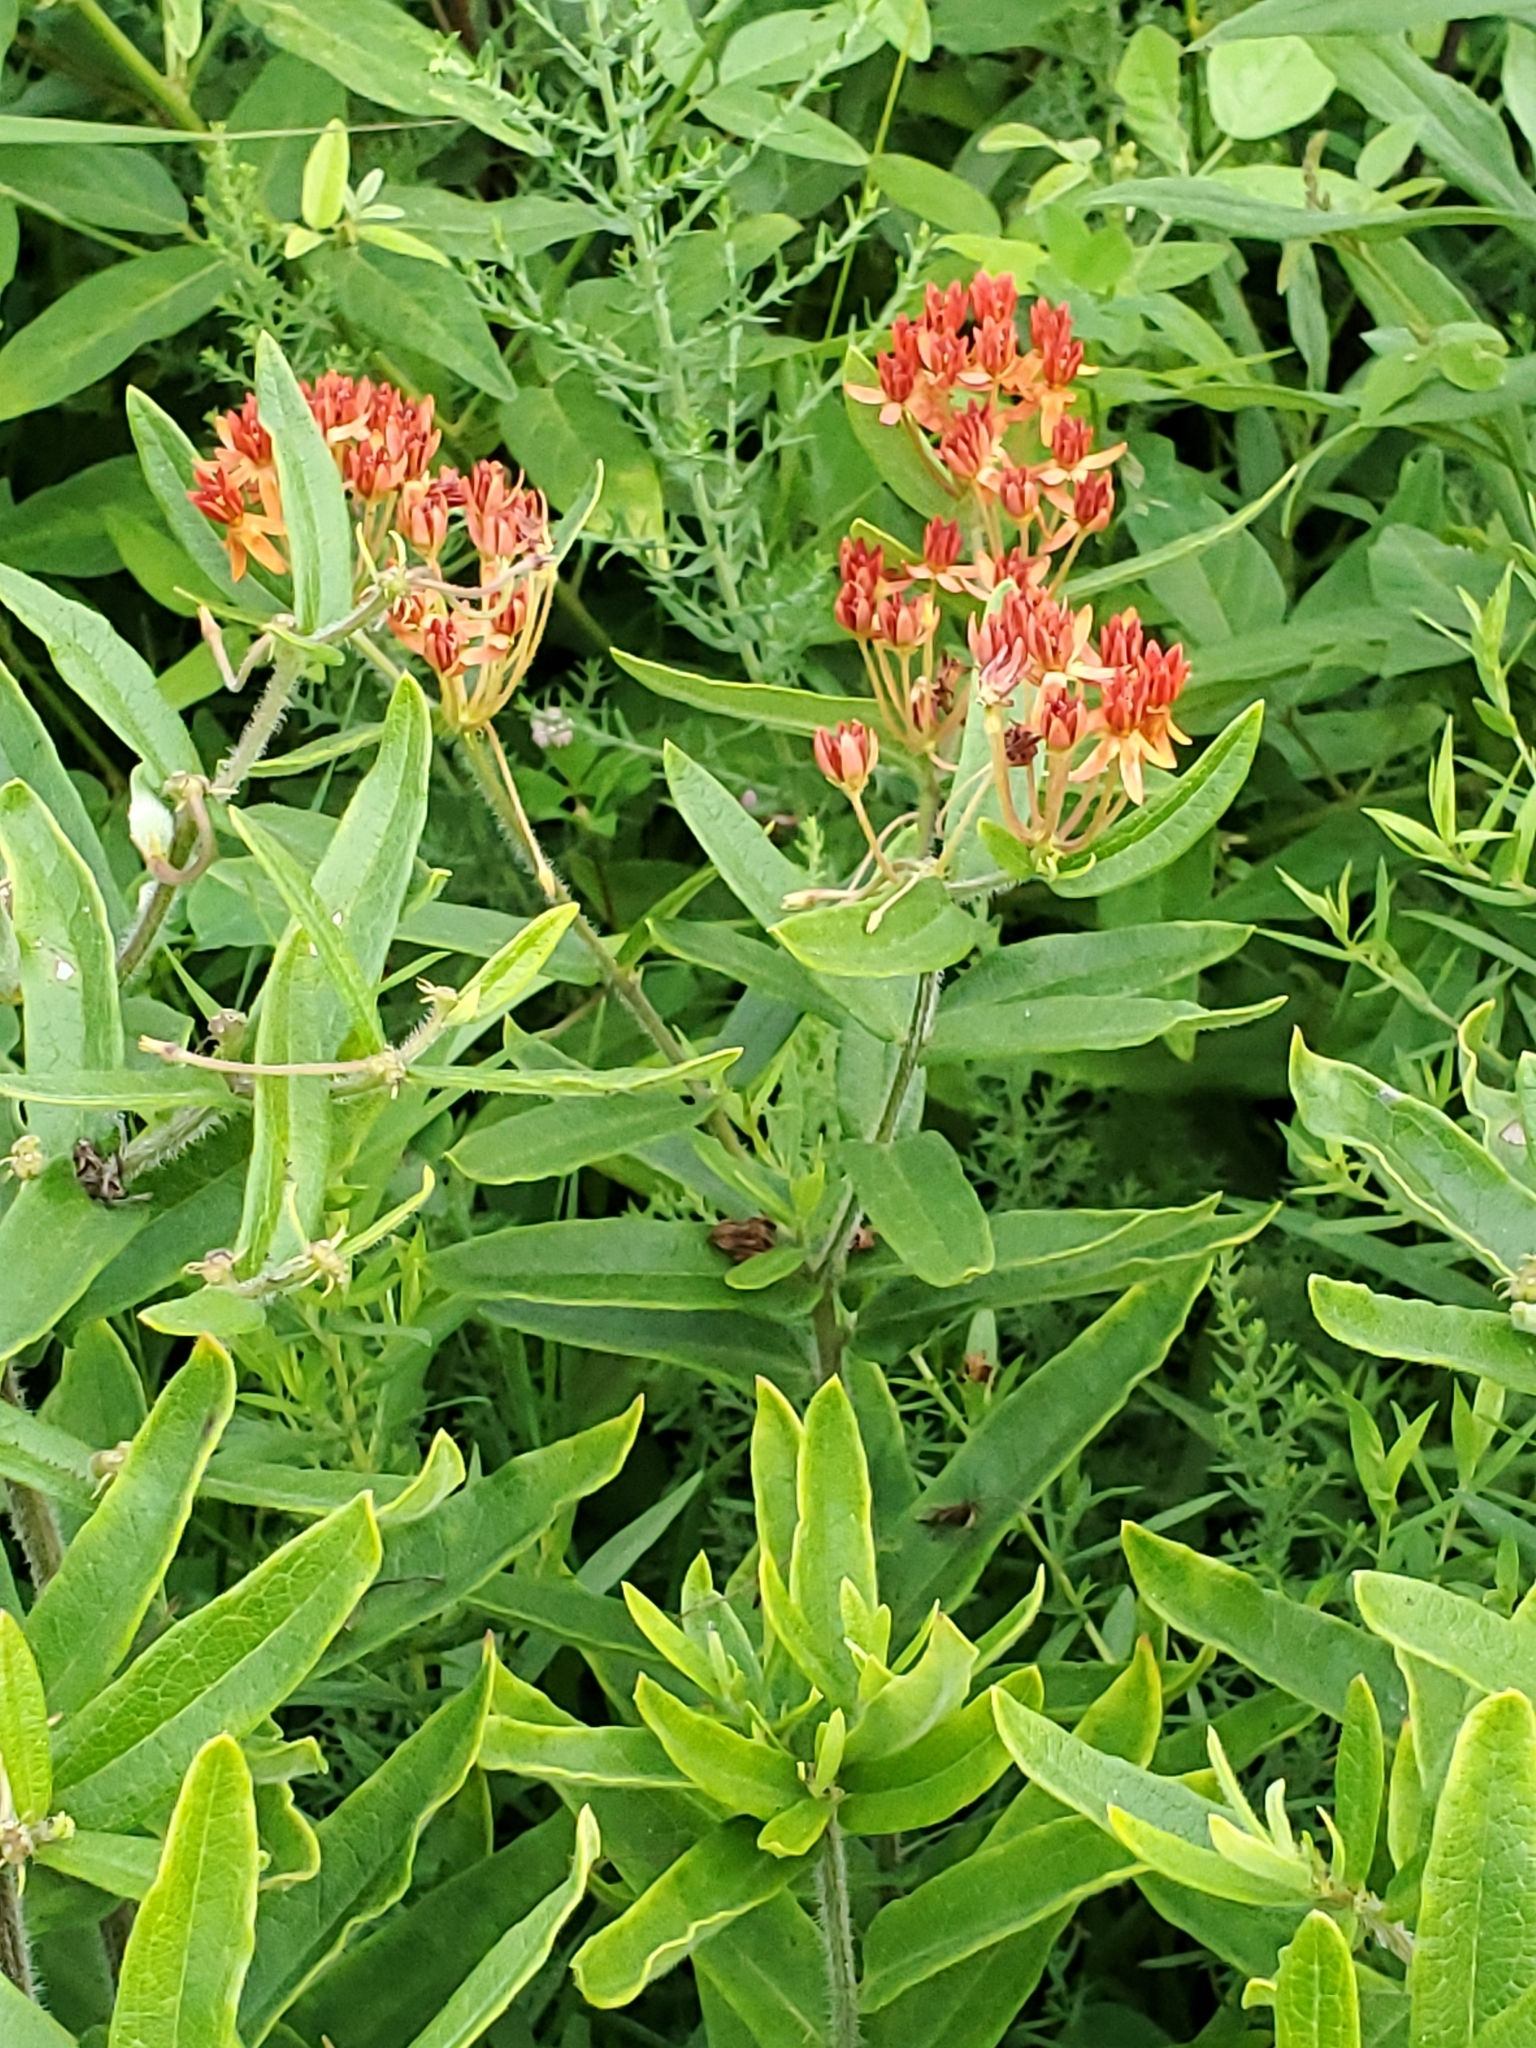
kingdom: Plantae
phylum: Tracheophyta
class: Magnoliopsida
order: Gentianales
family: Apocynaceae
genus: Asclepias
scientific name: Asclepias tuberosa
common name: Butterfly milkweed
